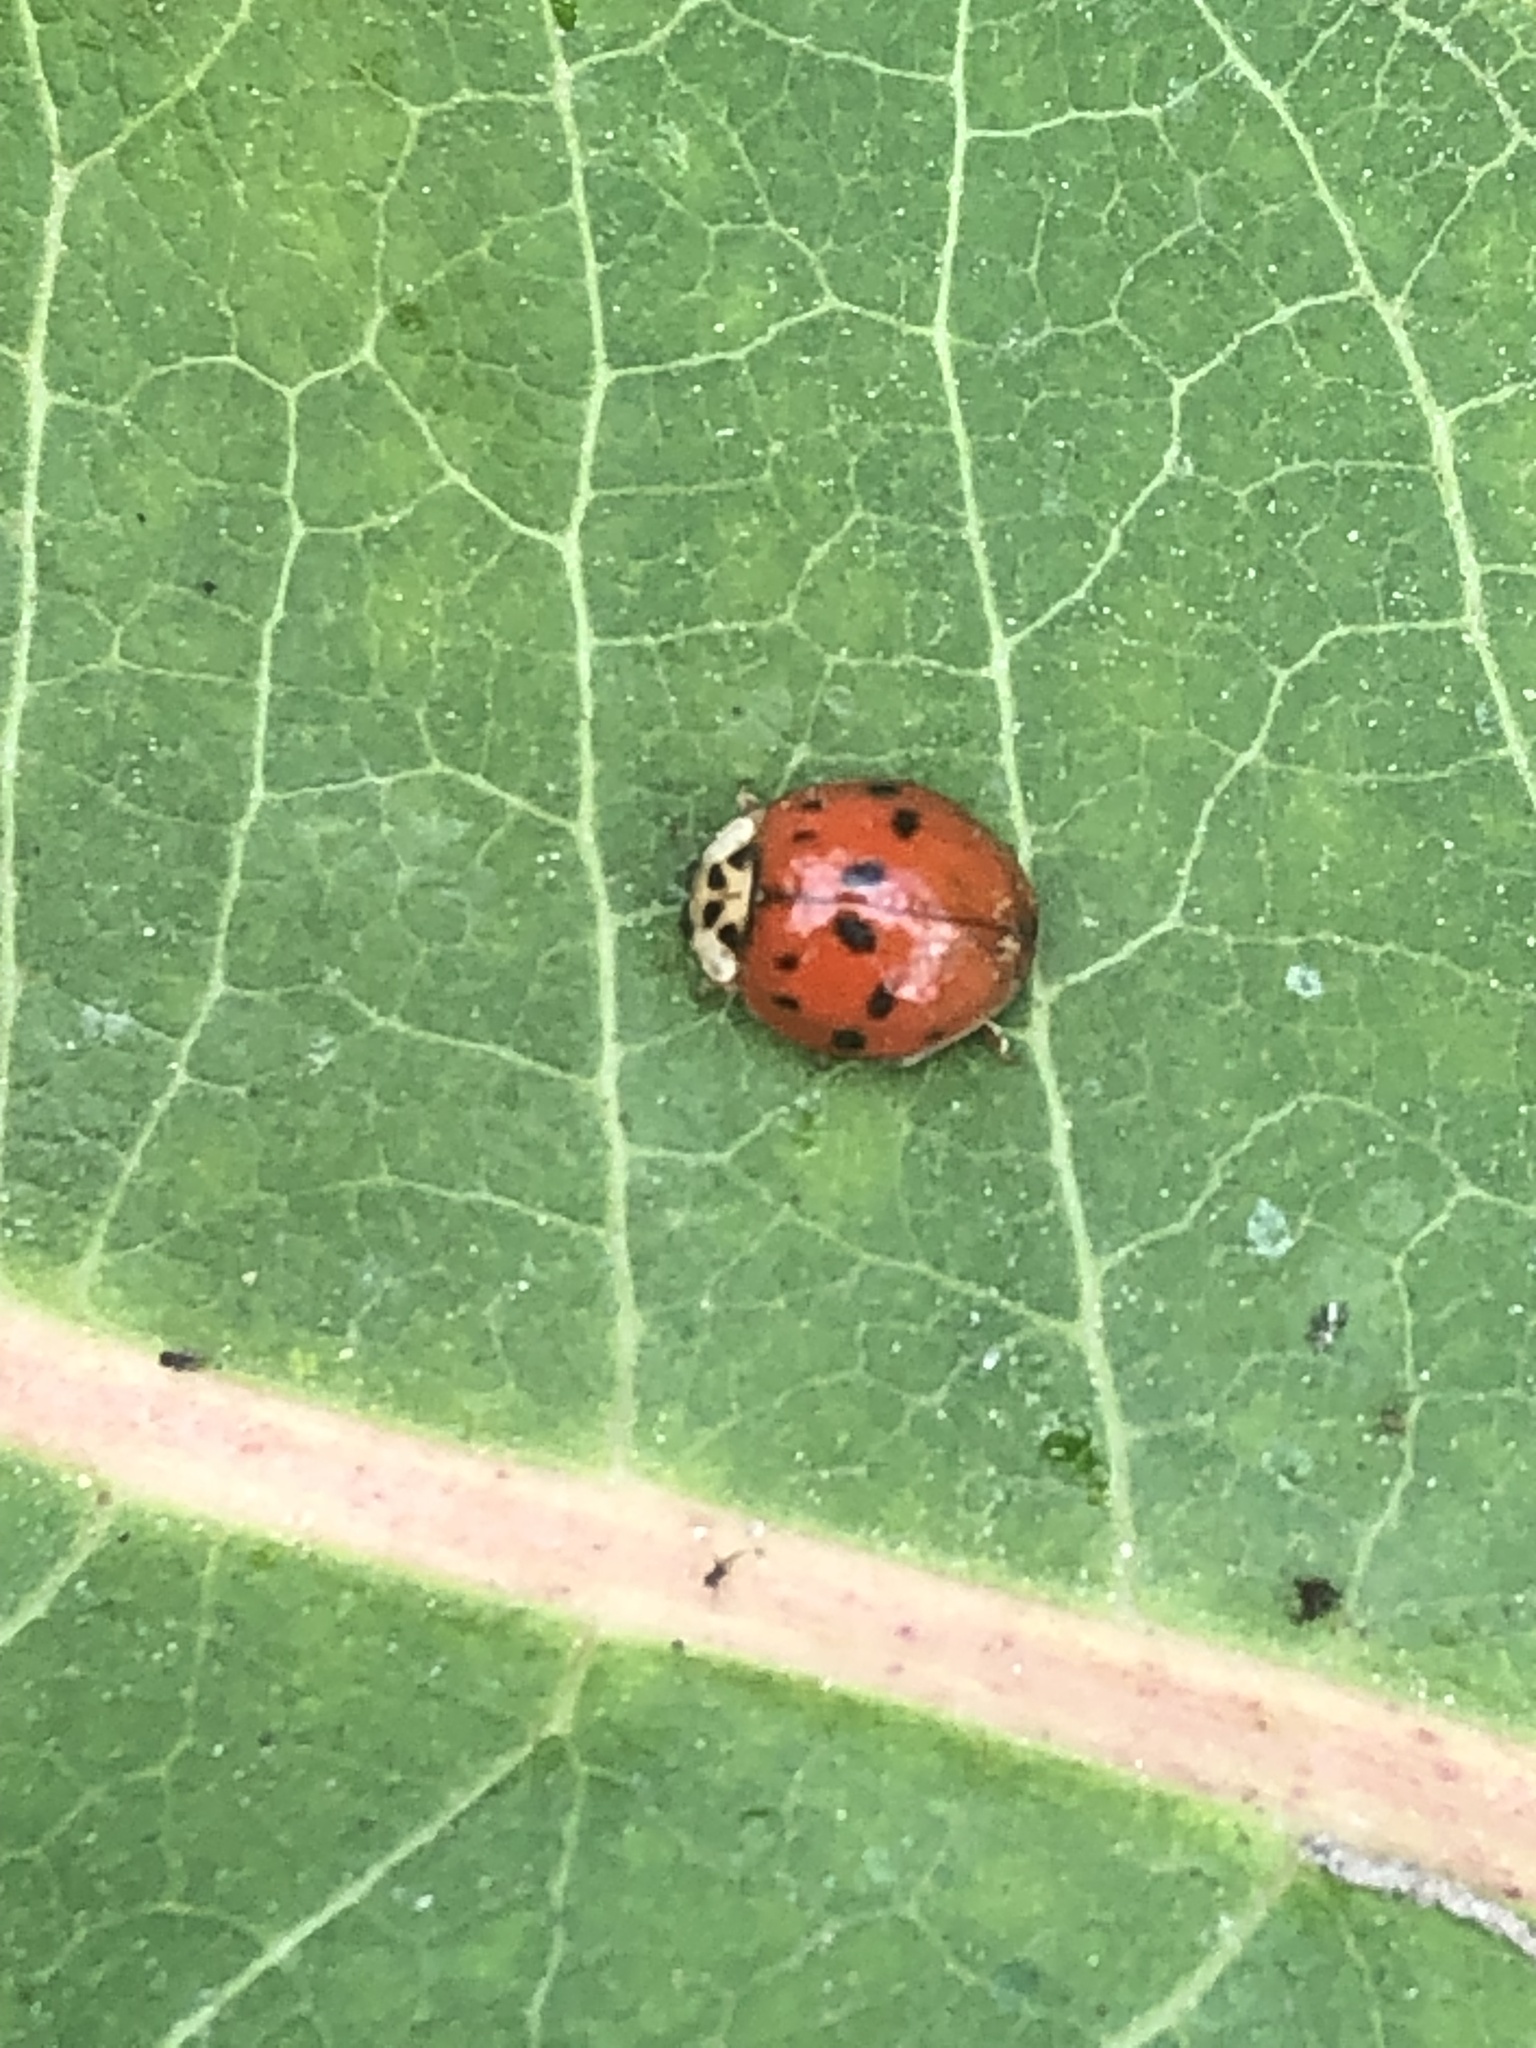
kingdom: Animalia
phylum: Arthropoda
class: Insecta
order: Coleoptera
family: Coccinellidae
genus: Harmonia
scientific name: Harmonia axyridis
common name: Harlequin ladybird
